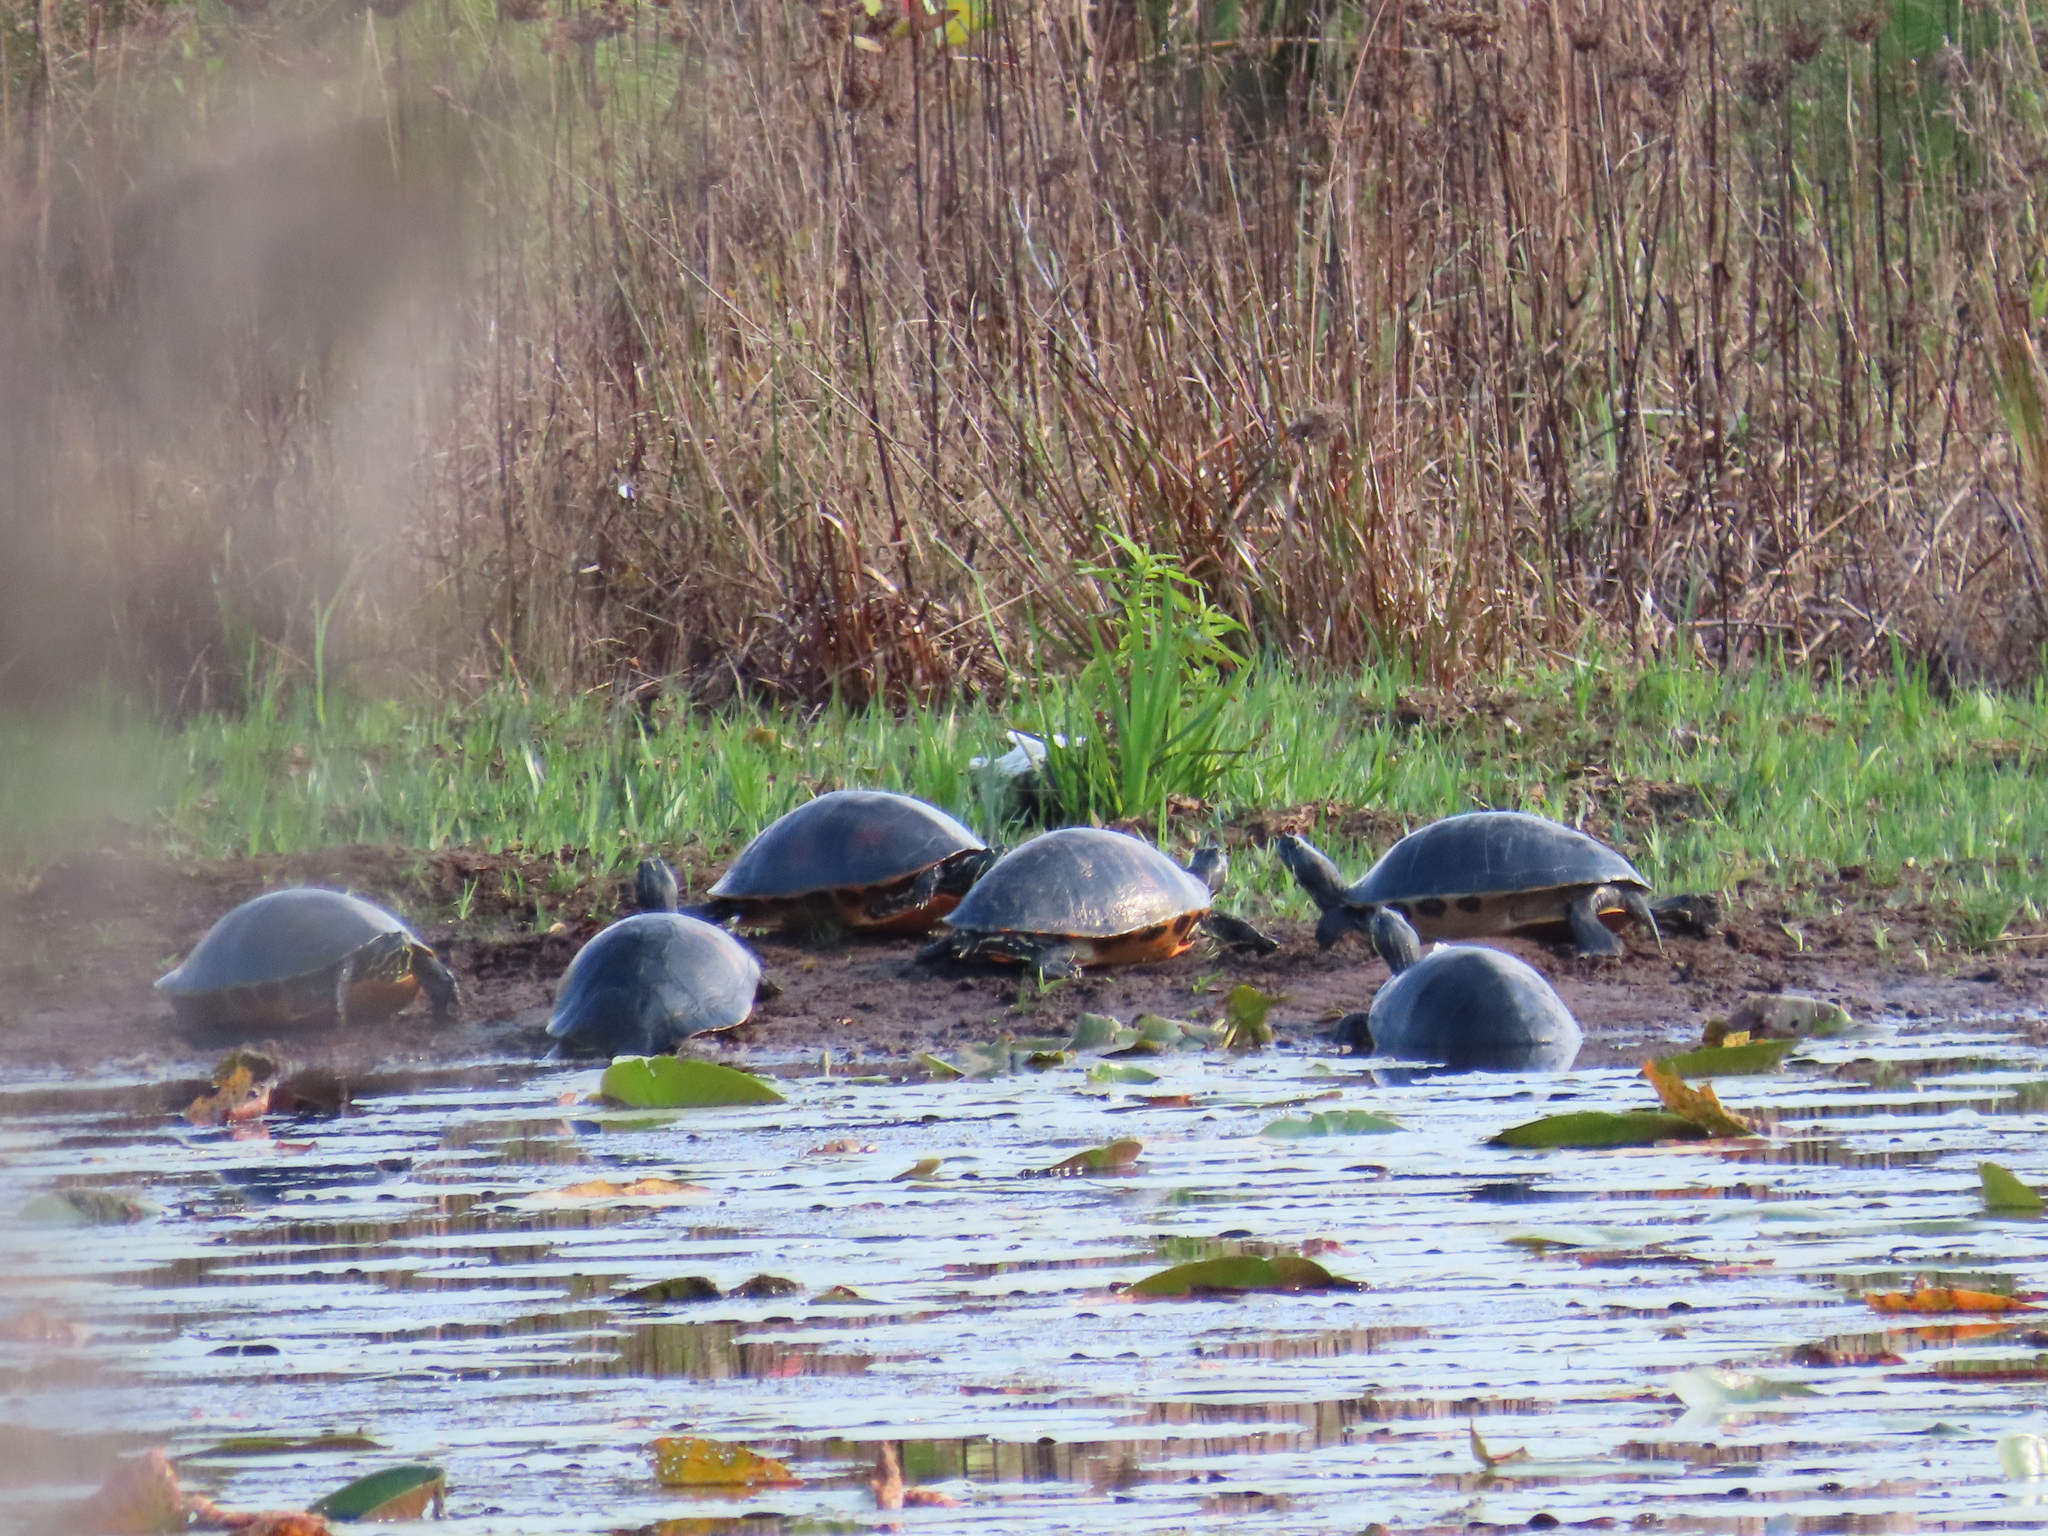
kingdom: Animalia
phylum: Chordata
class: Testudines
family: Emydidae
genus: Pseudemys
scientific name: Pseudemys nelsoni
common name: Florida red-bellied turtle
